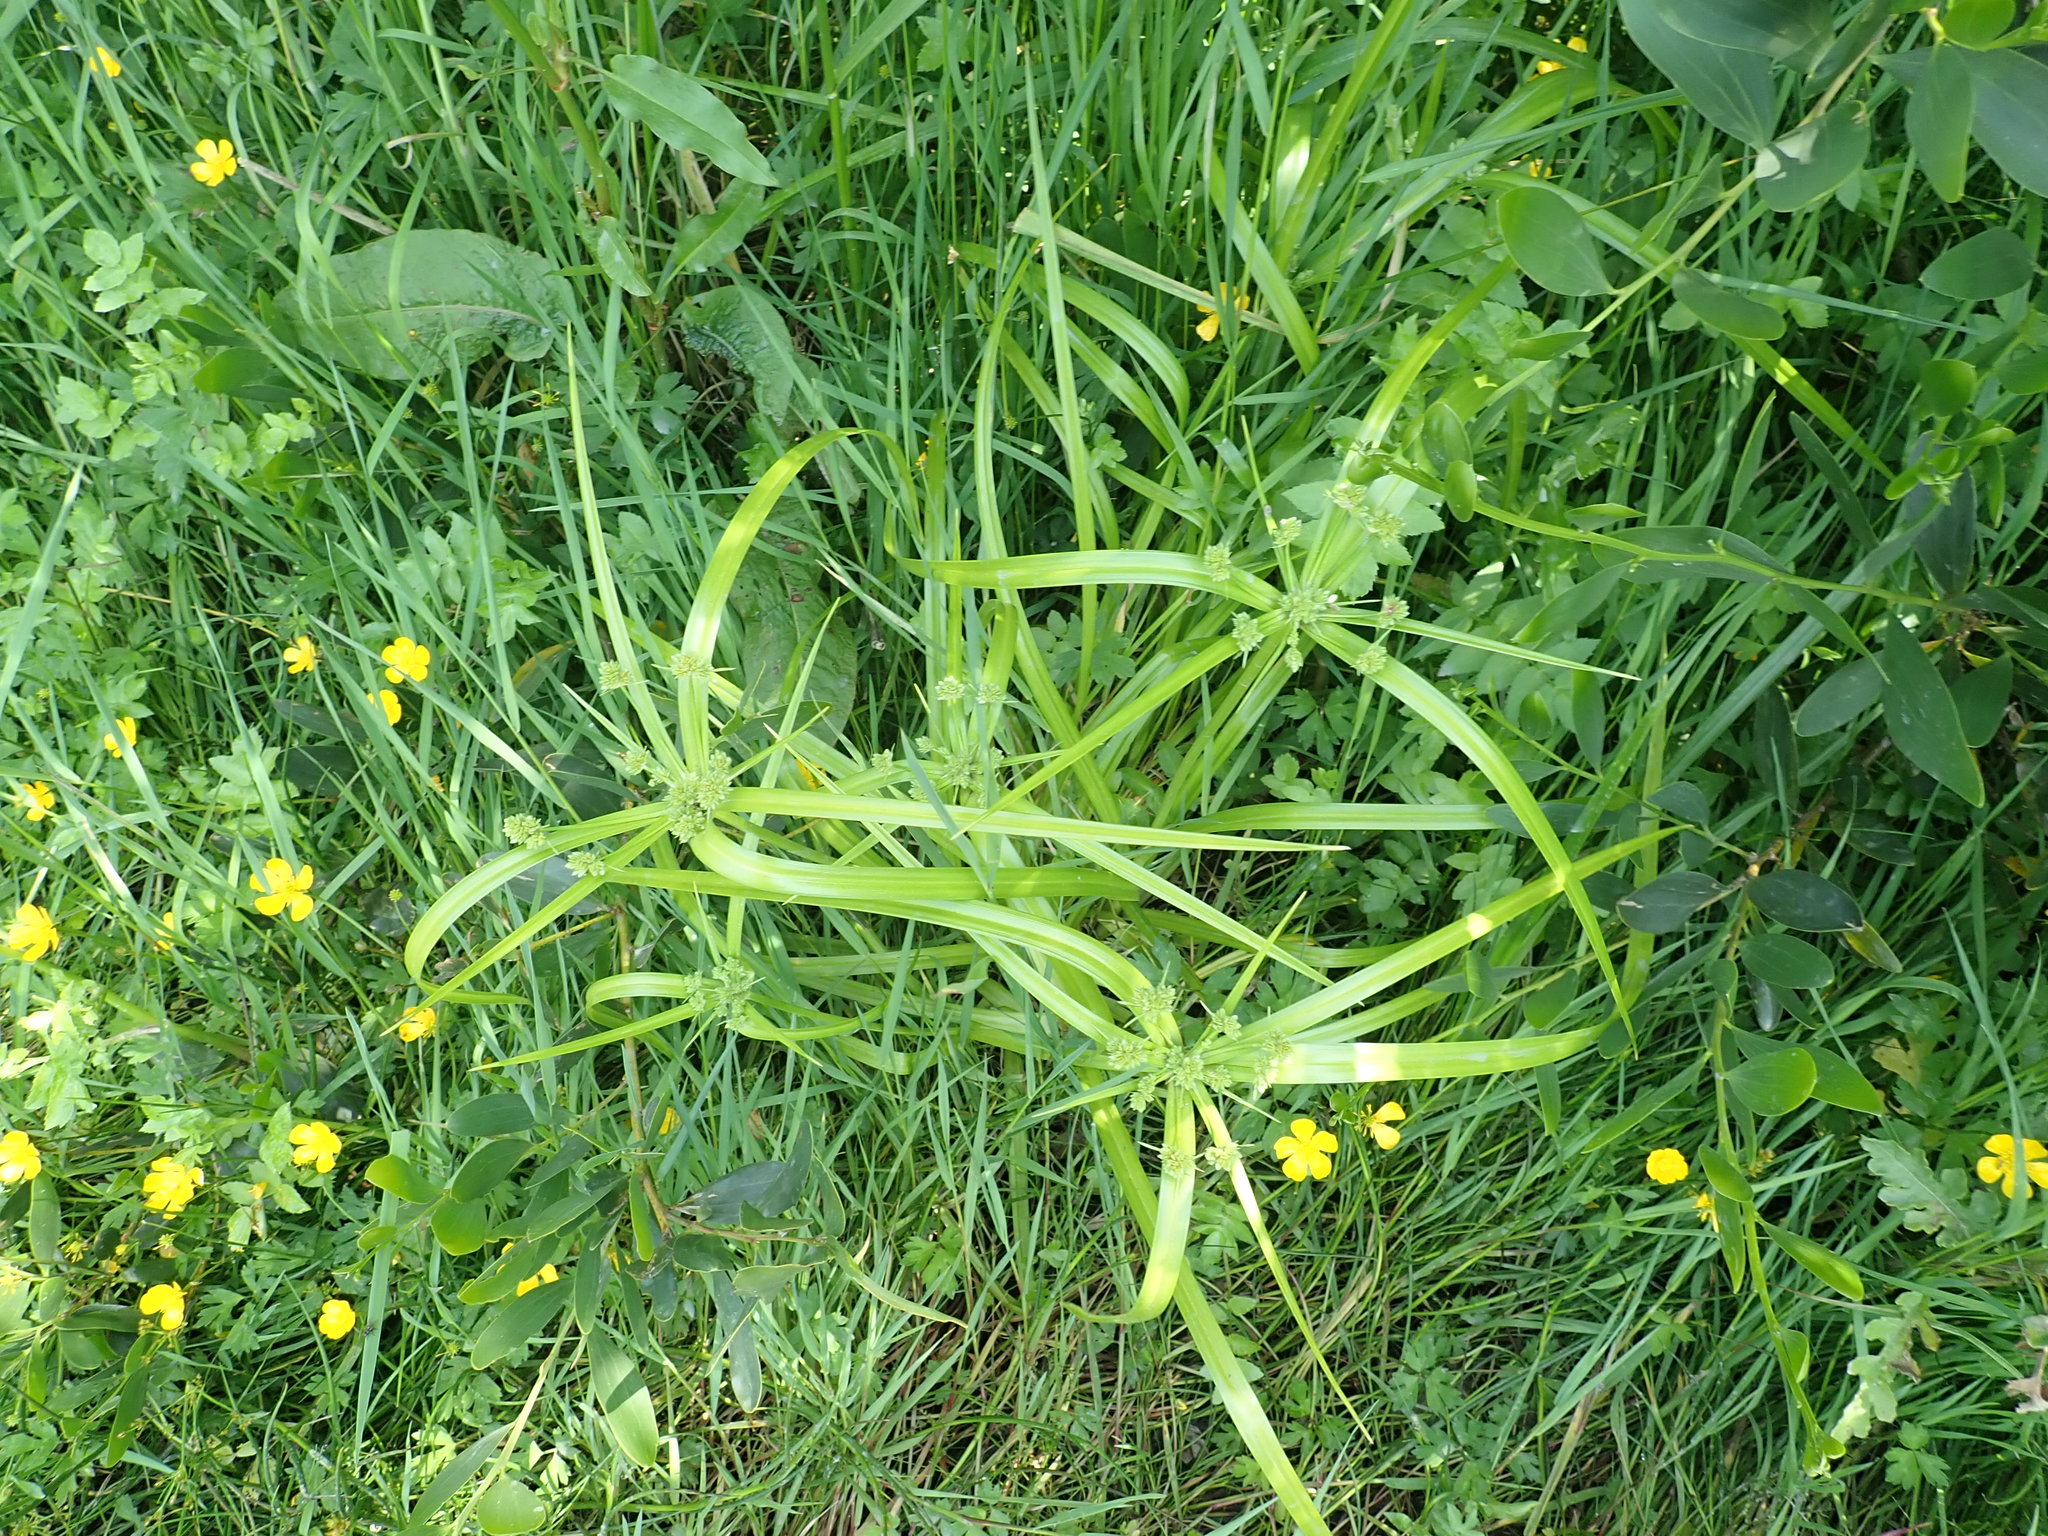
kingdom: Plantae
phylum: Tracheophyta
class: Liliopsida
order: Poales
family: Cyperaceae
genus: Cyperus
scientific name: Cyperus eragrostis
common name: Tall flatsedge
